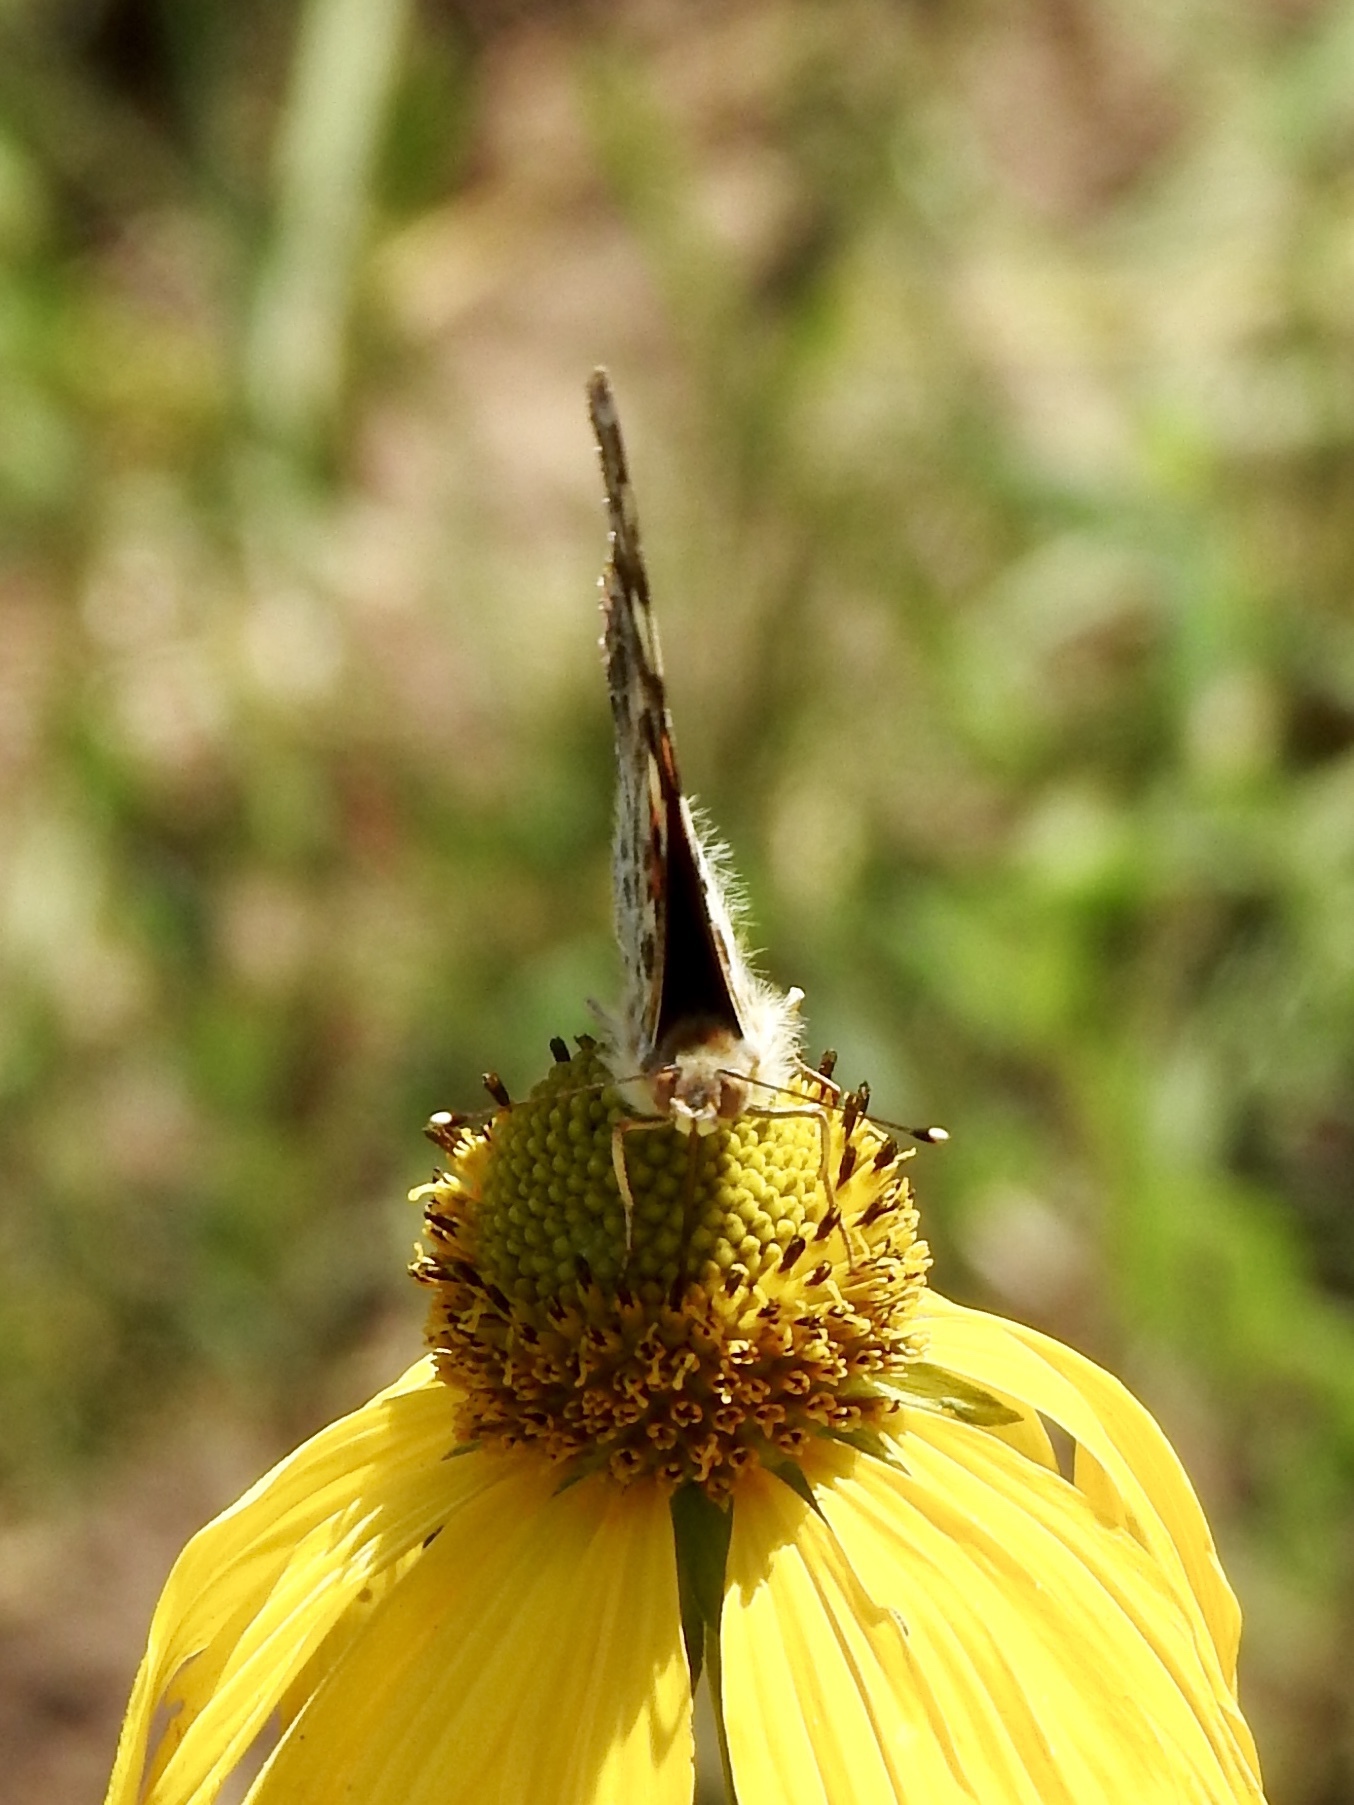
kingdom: Animalia
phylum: Arthropoda
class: Insecta
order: Lepidoptera
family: Nymphalidae
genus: Vanessa
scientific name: Vanessa cardui
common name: Painted lady
